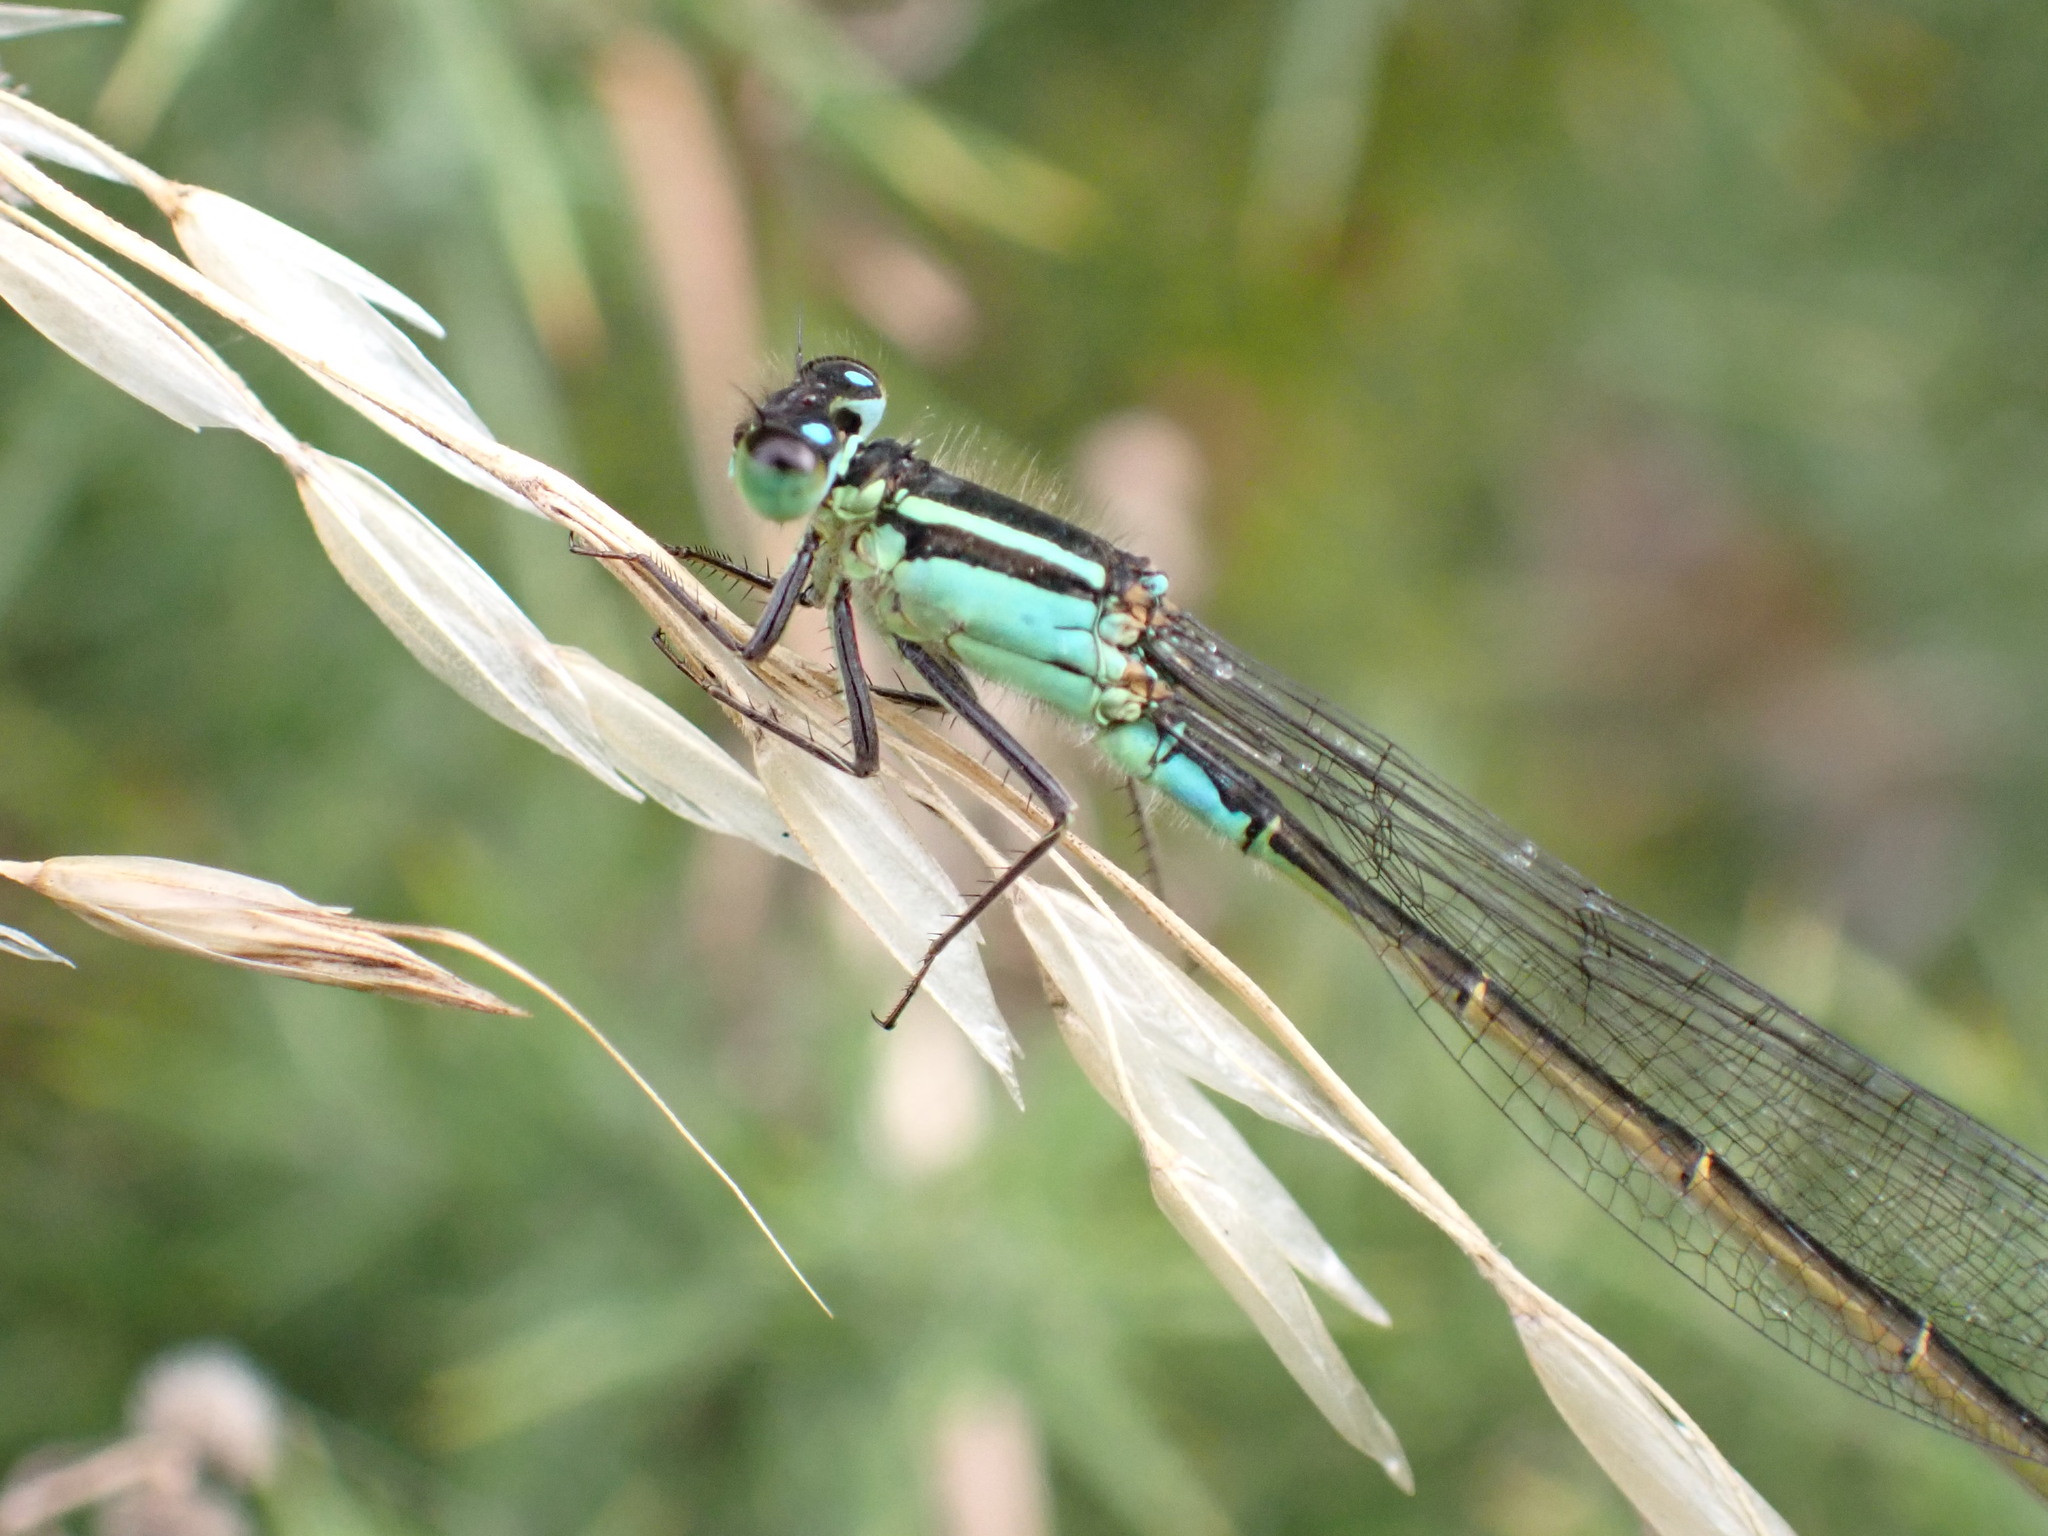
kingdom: Animalia
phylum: Arthropoda
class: Insecta
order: Odonata
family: Coenagrionidae
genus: Ischnura
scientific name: Ischnura elegans
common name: Blue-tailed damselfly
